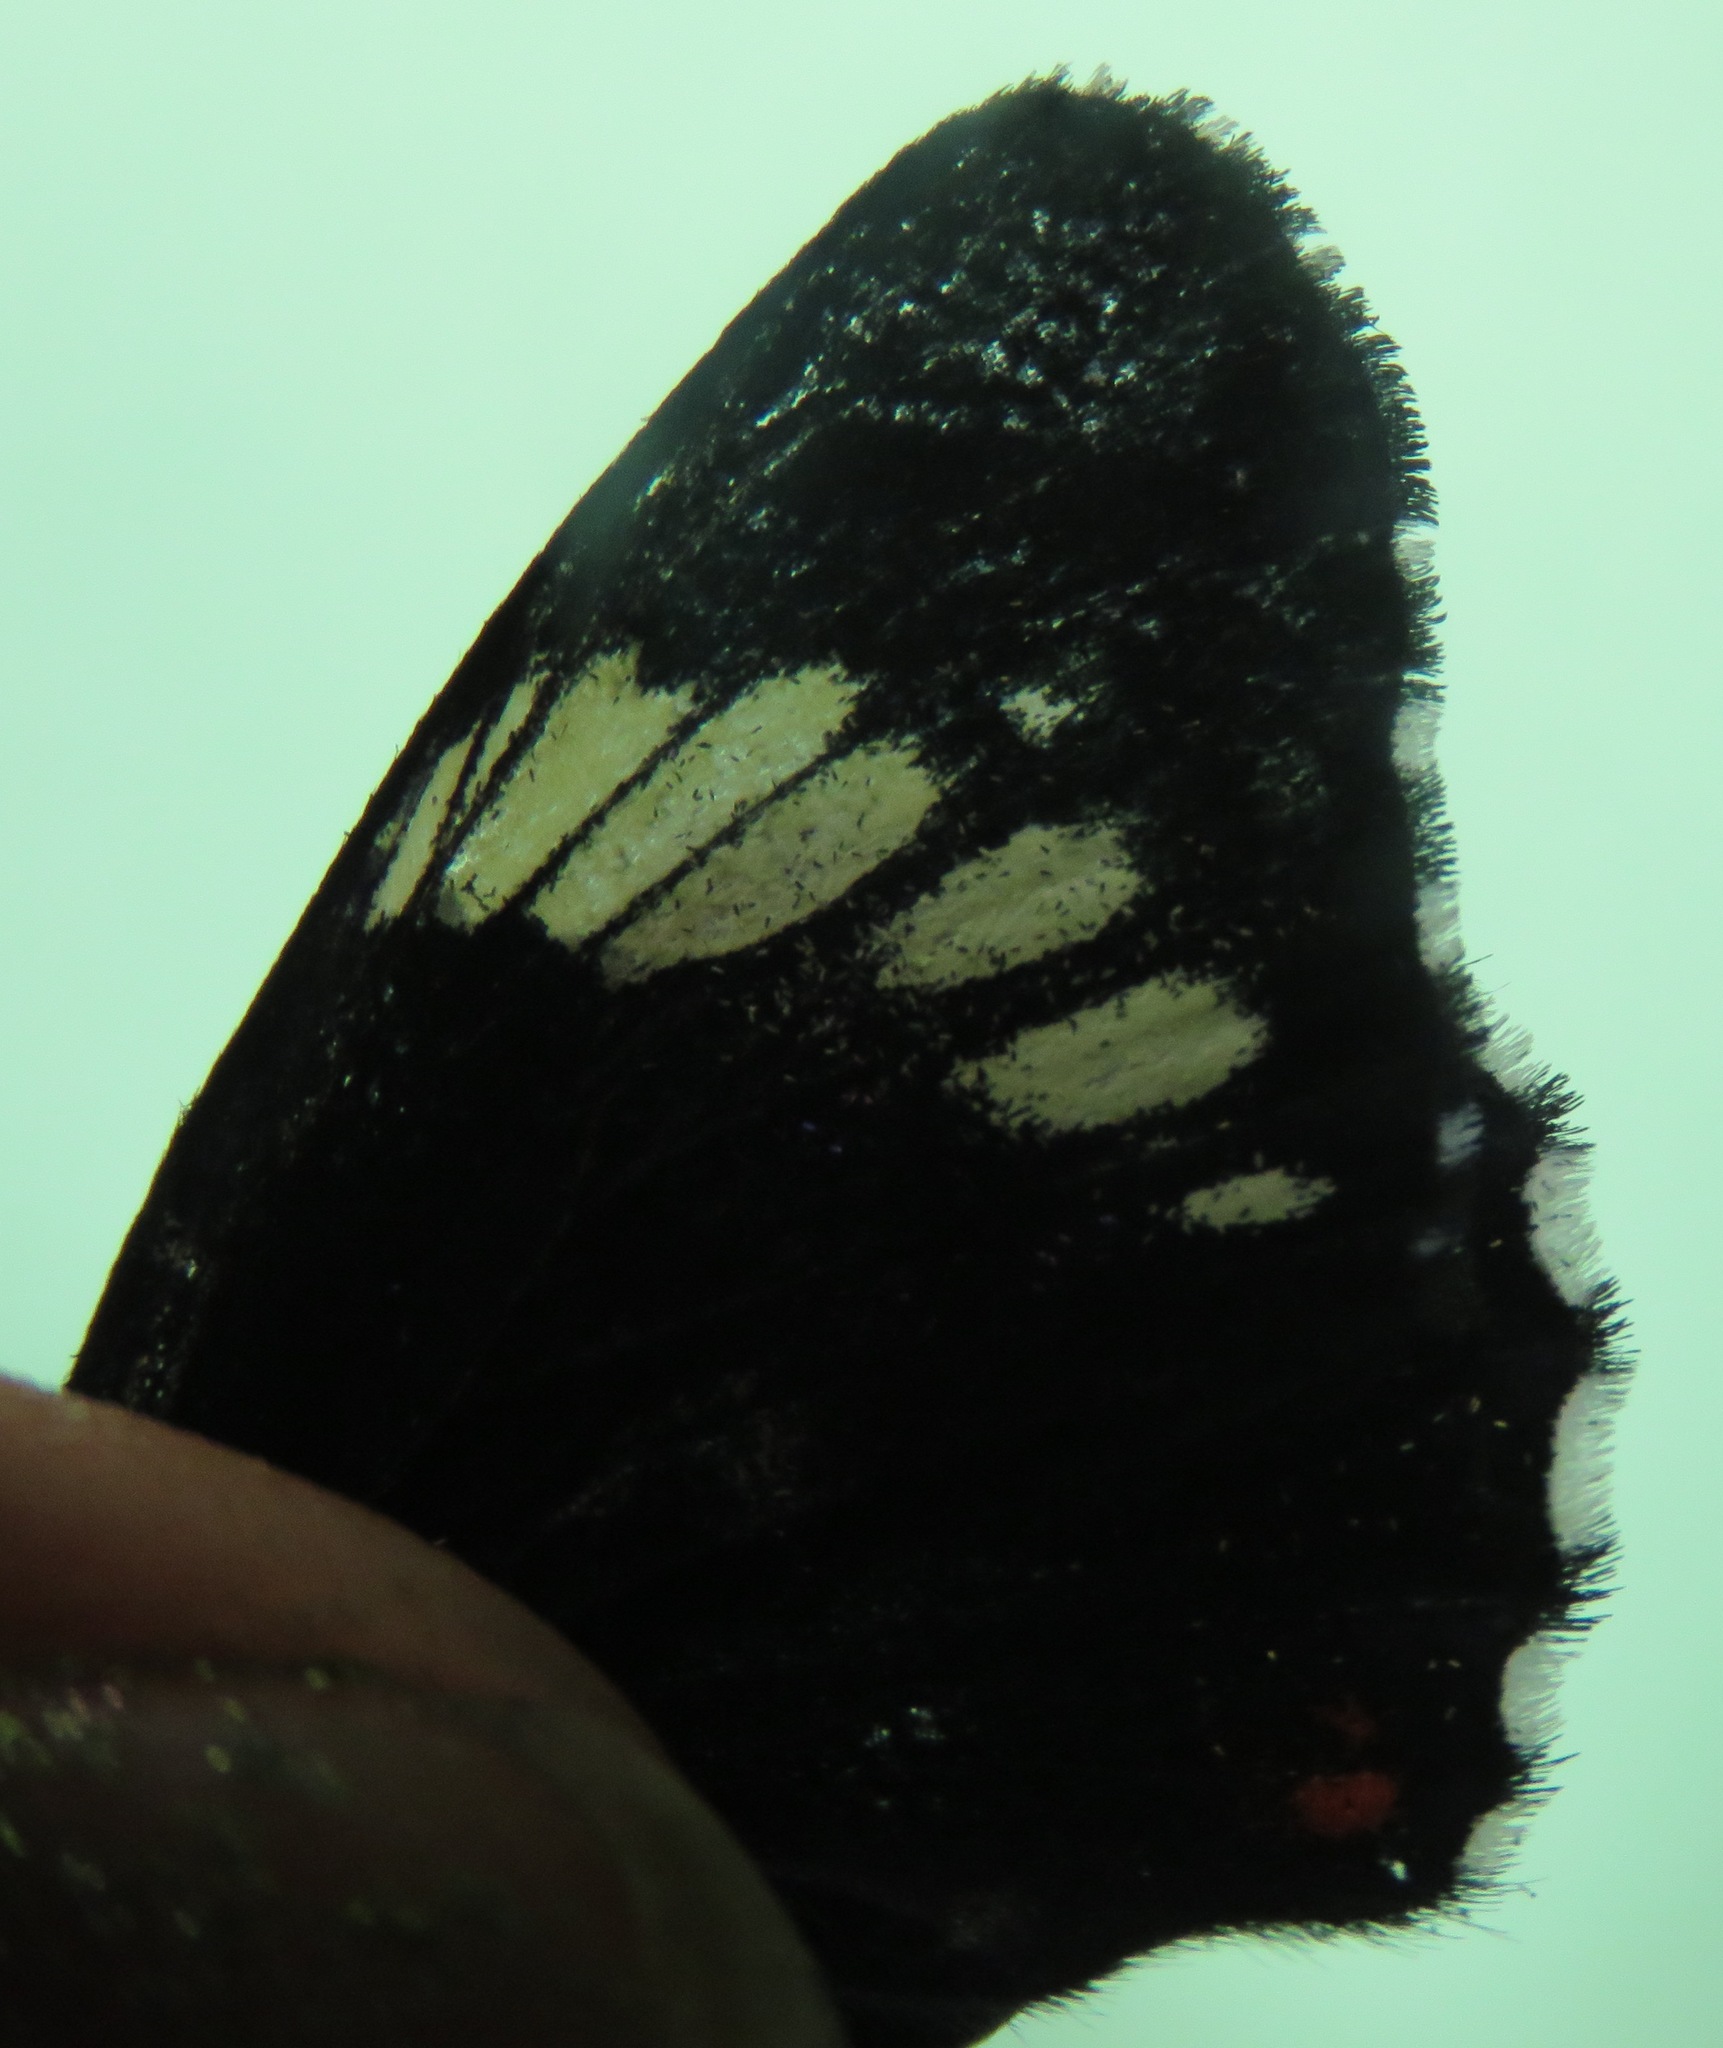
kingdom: Animalia
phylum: Arthropoda
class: Insecta
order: Lepidoptera
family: Nymphalidae
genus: Chlosyne
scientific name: Chlosyne melanarge
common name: Cream-banded checkerspot
